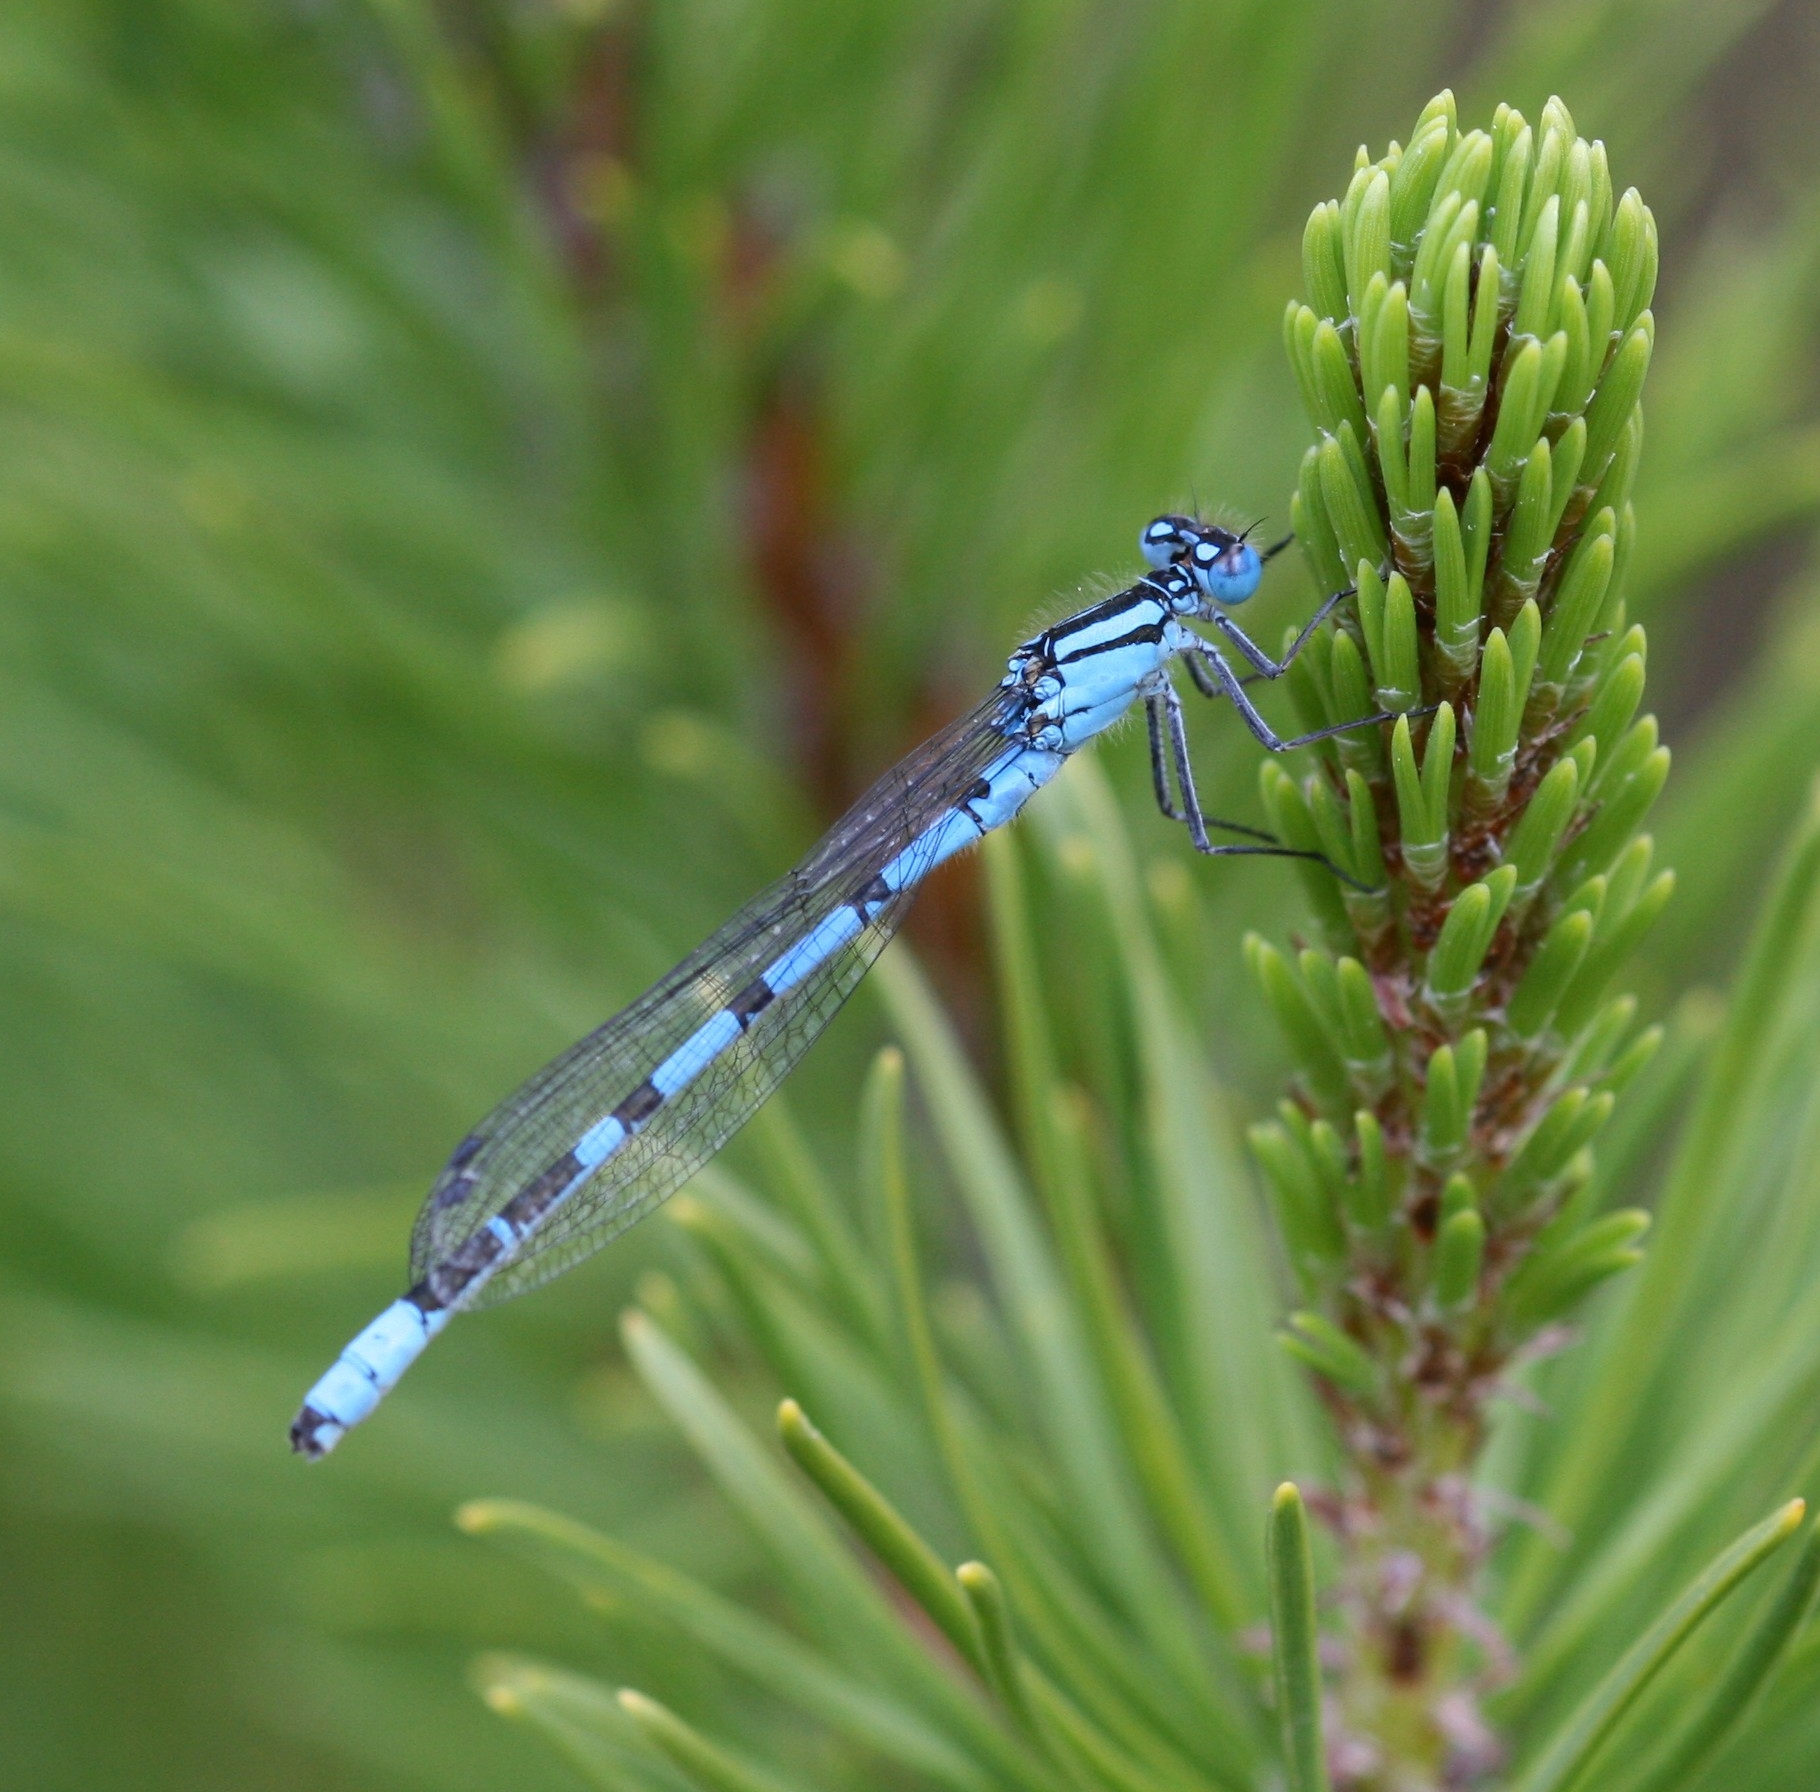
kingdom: Animalia
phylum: Arthropoda
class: Insecta
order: Odonata
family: Coenagrionidae
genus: Enallagma
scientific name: Enallagma cyathigerum
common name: Common blue damselfly
